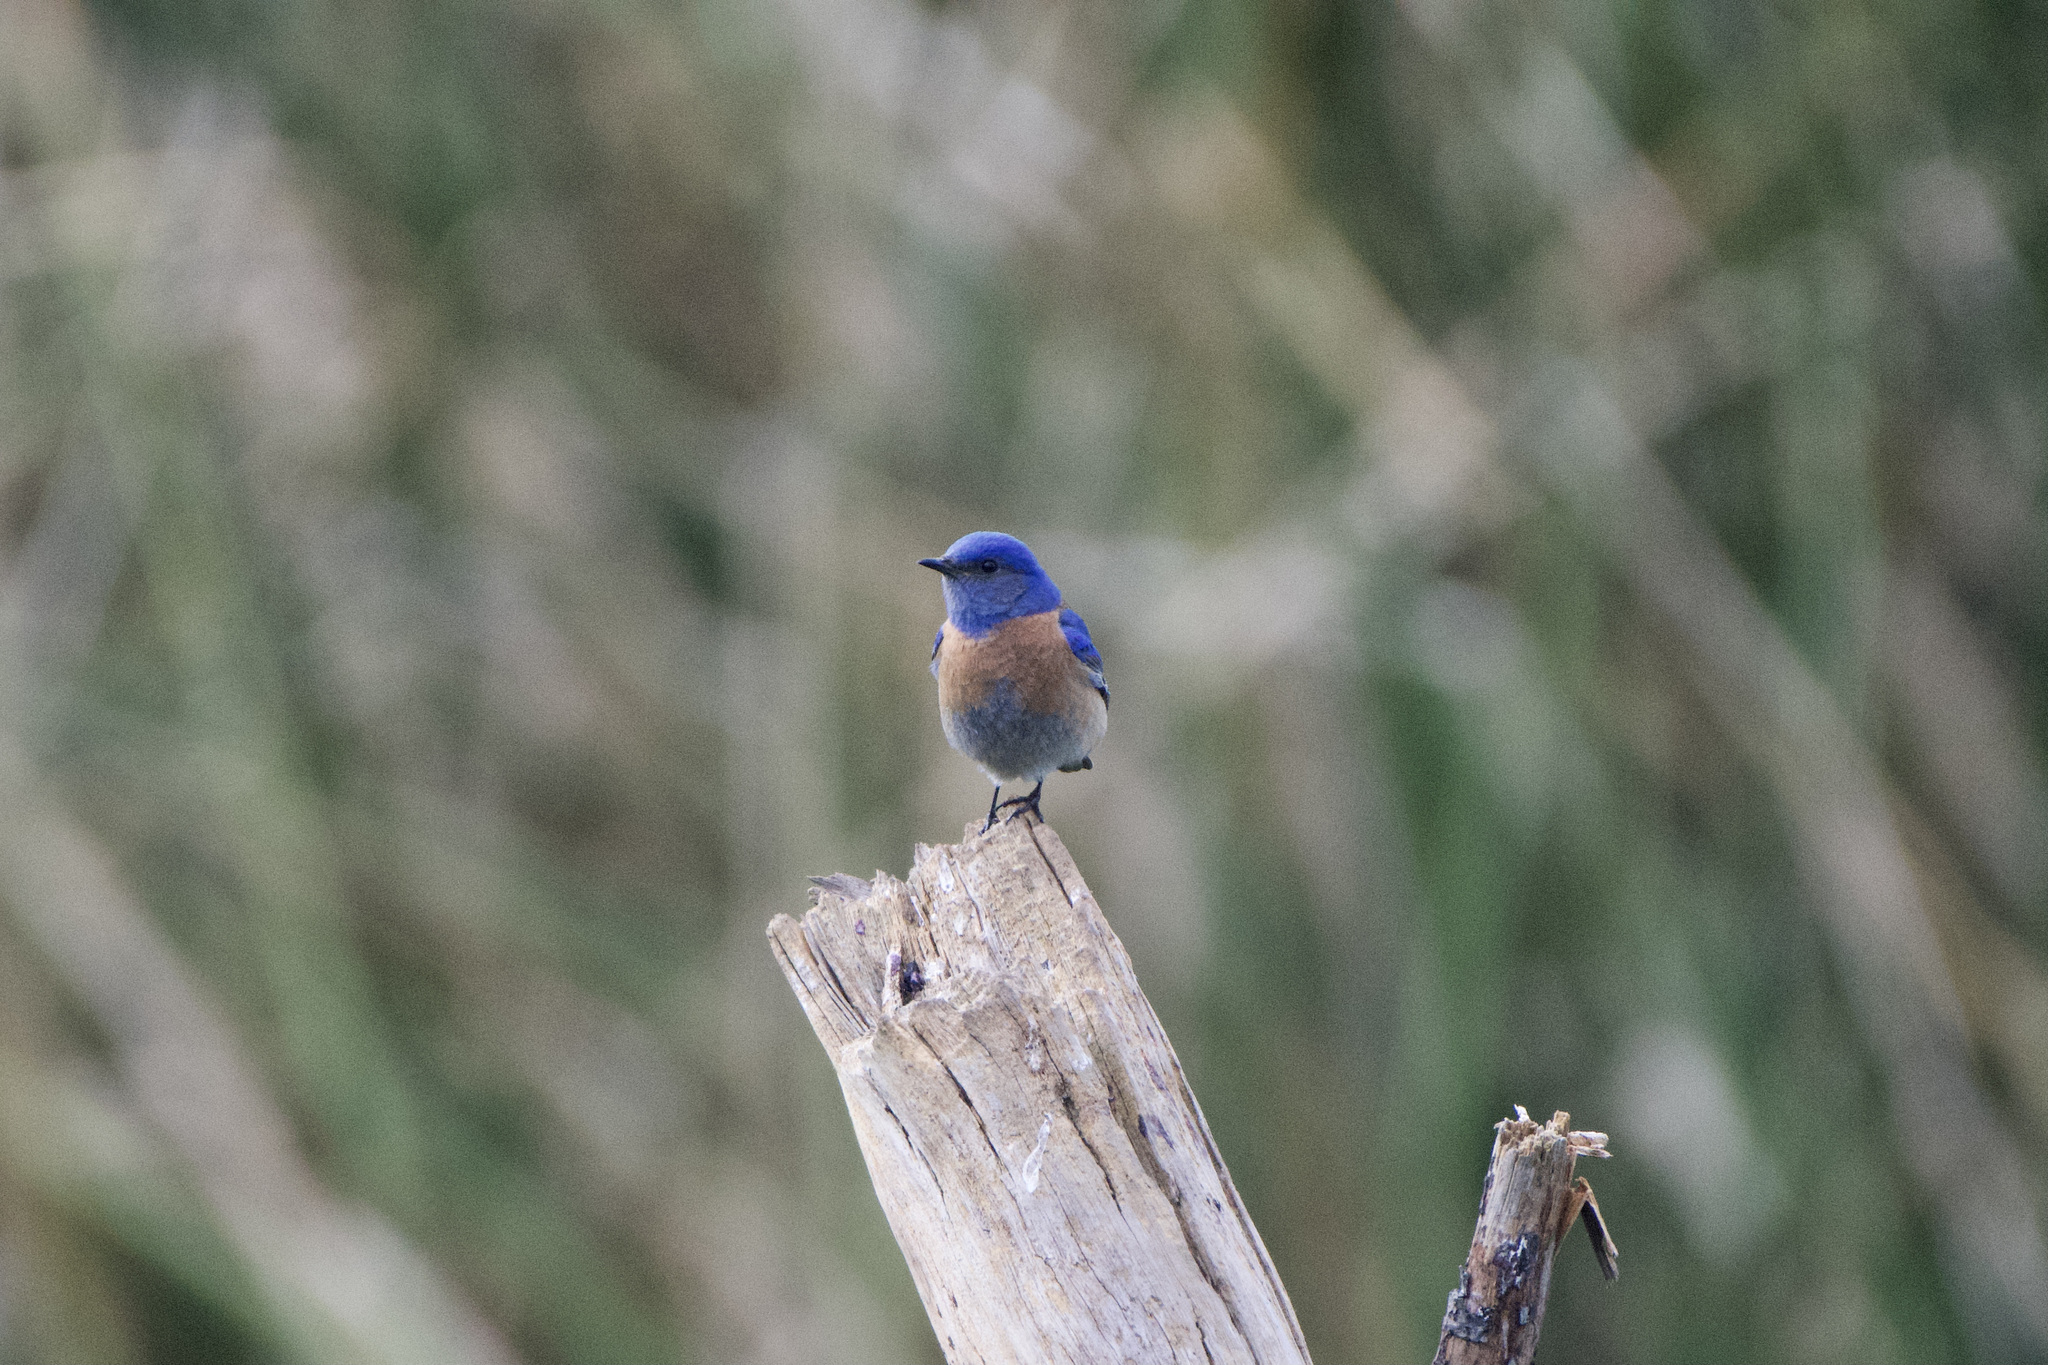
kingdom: Animalia
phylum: Chordata
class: Aves
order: Passeriformes
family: Turdidae
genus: Sialia
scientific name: Sialia mexicana
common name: Western bluebird
